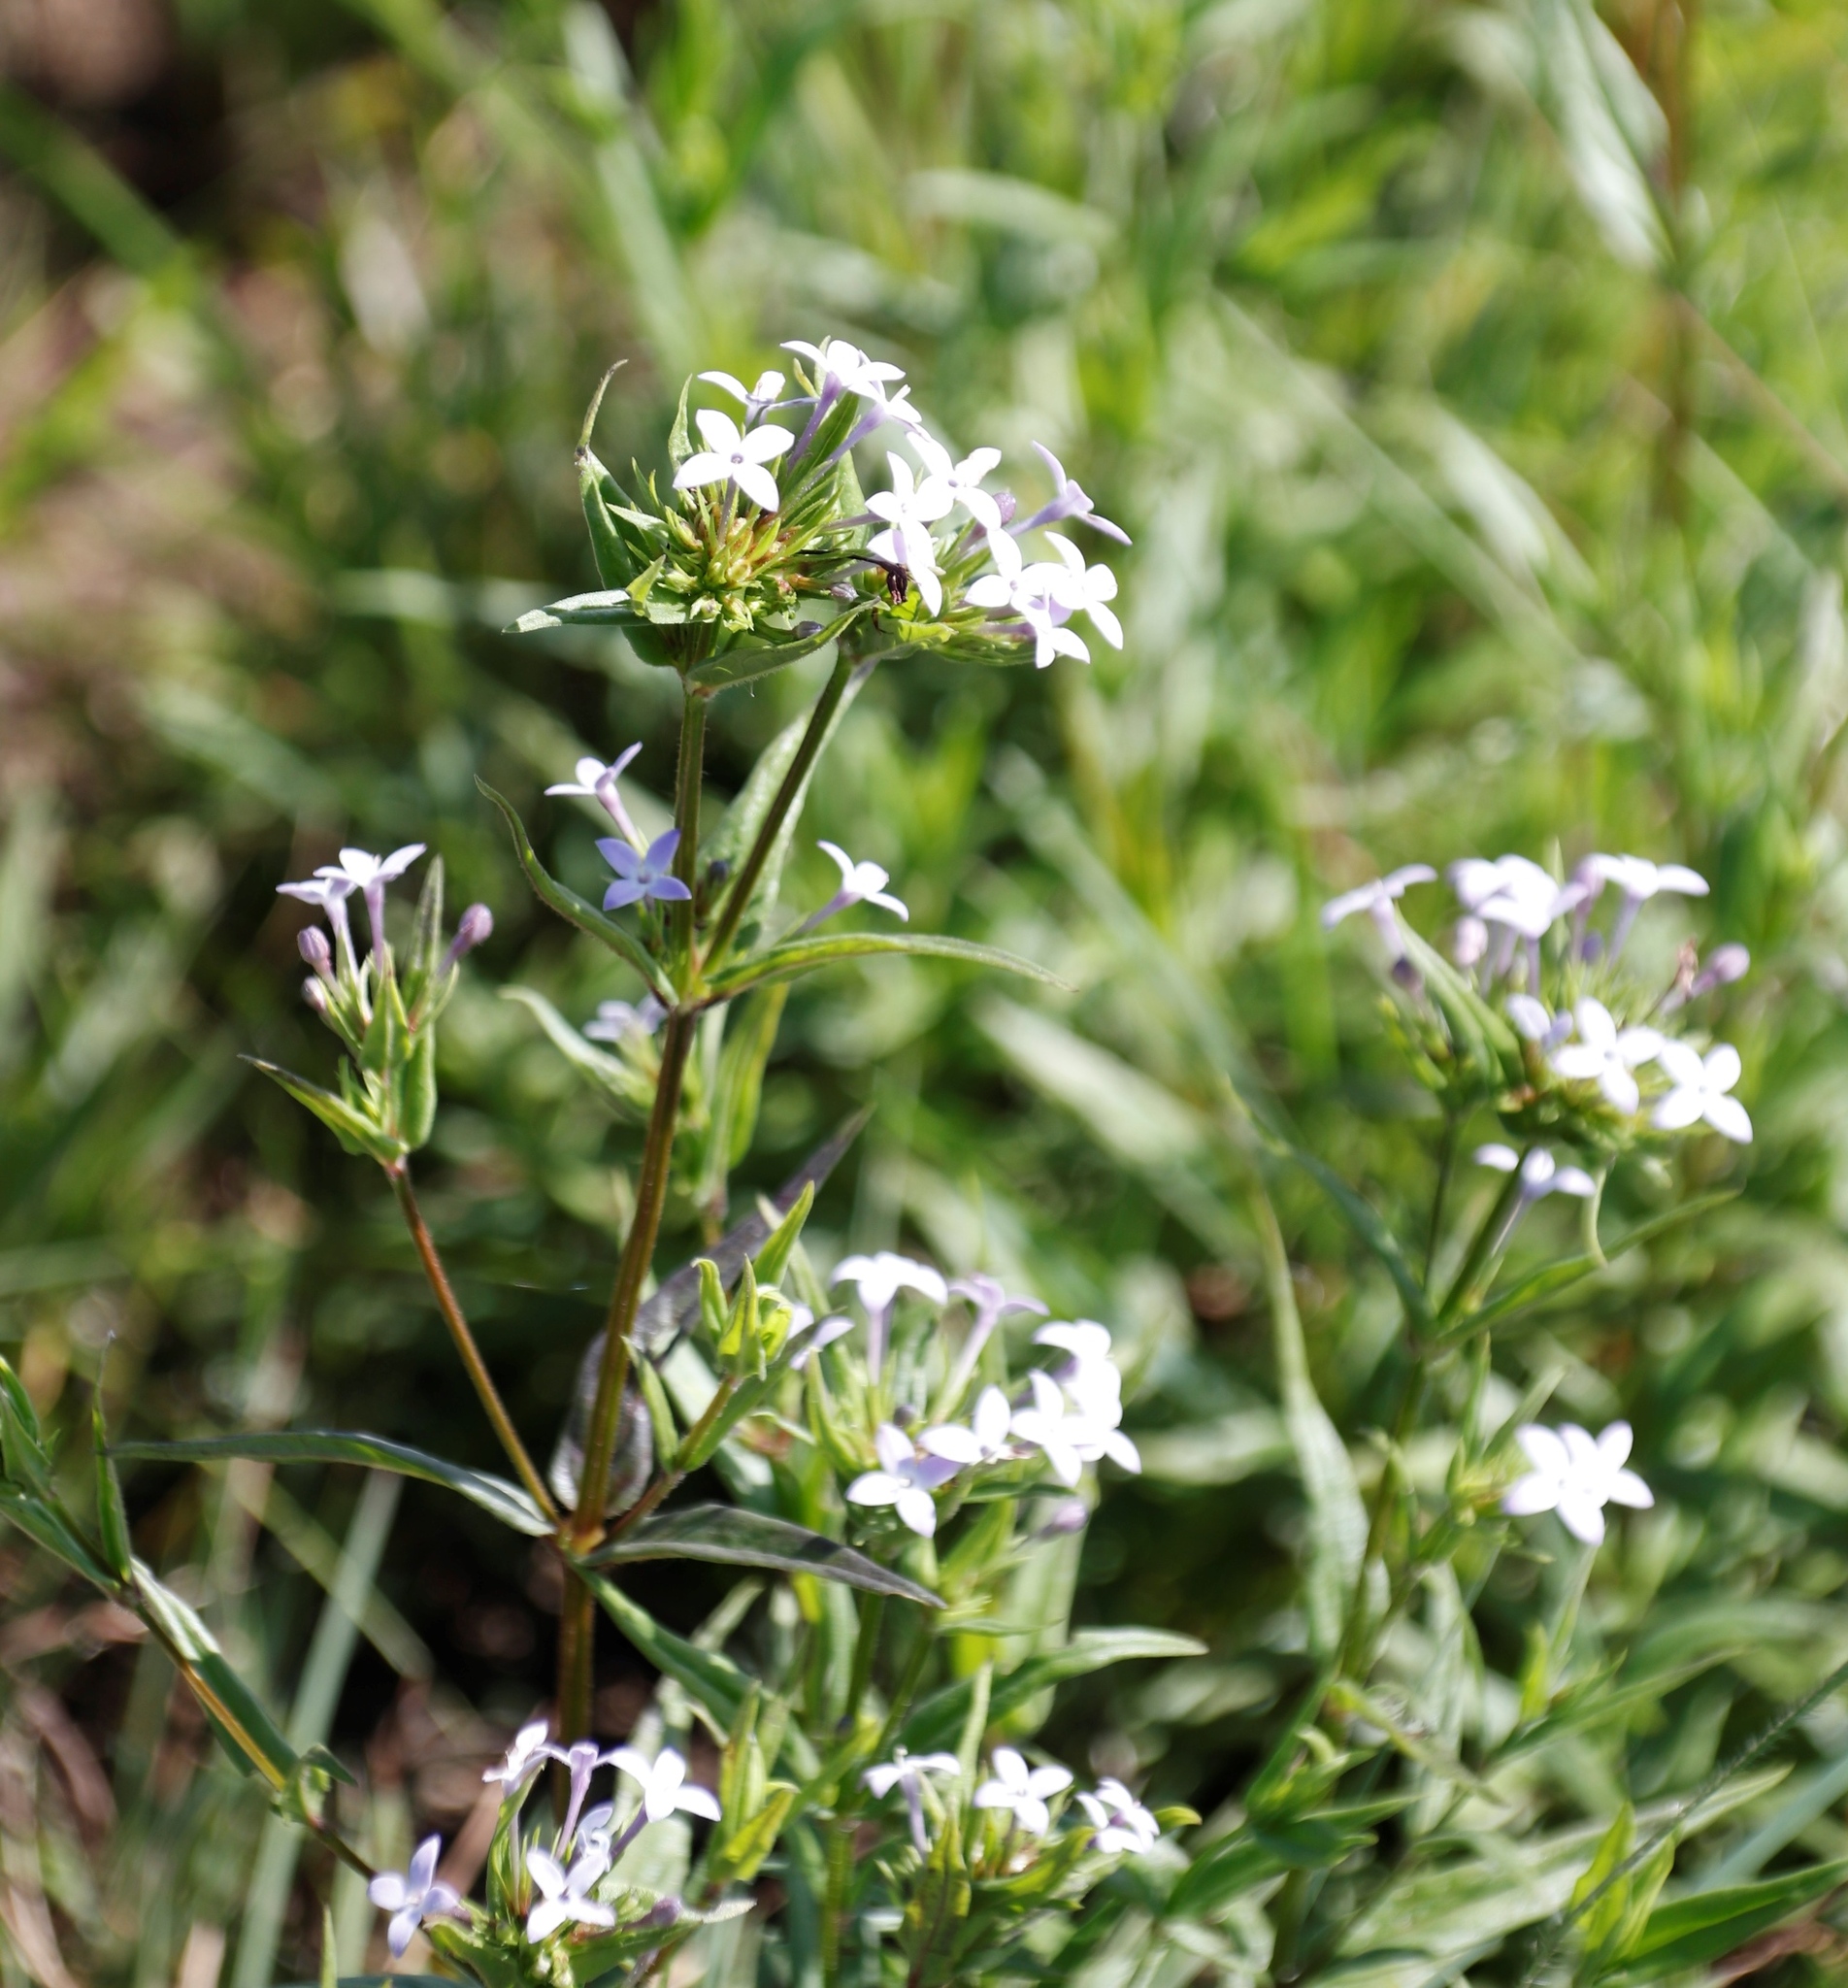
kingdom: Plantae
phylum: Tracheophyta
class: Magnoliopsida
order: Gentianales
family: Rubiaceae
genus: Conostomium
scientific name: Conostomium natalense
